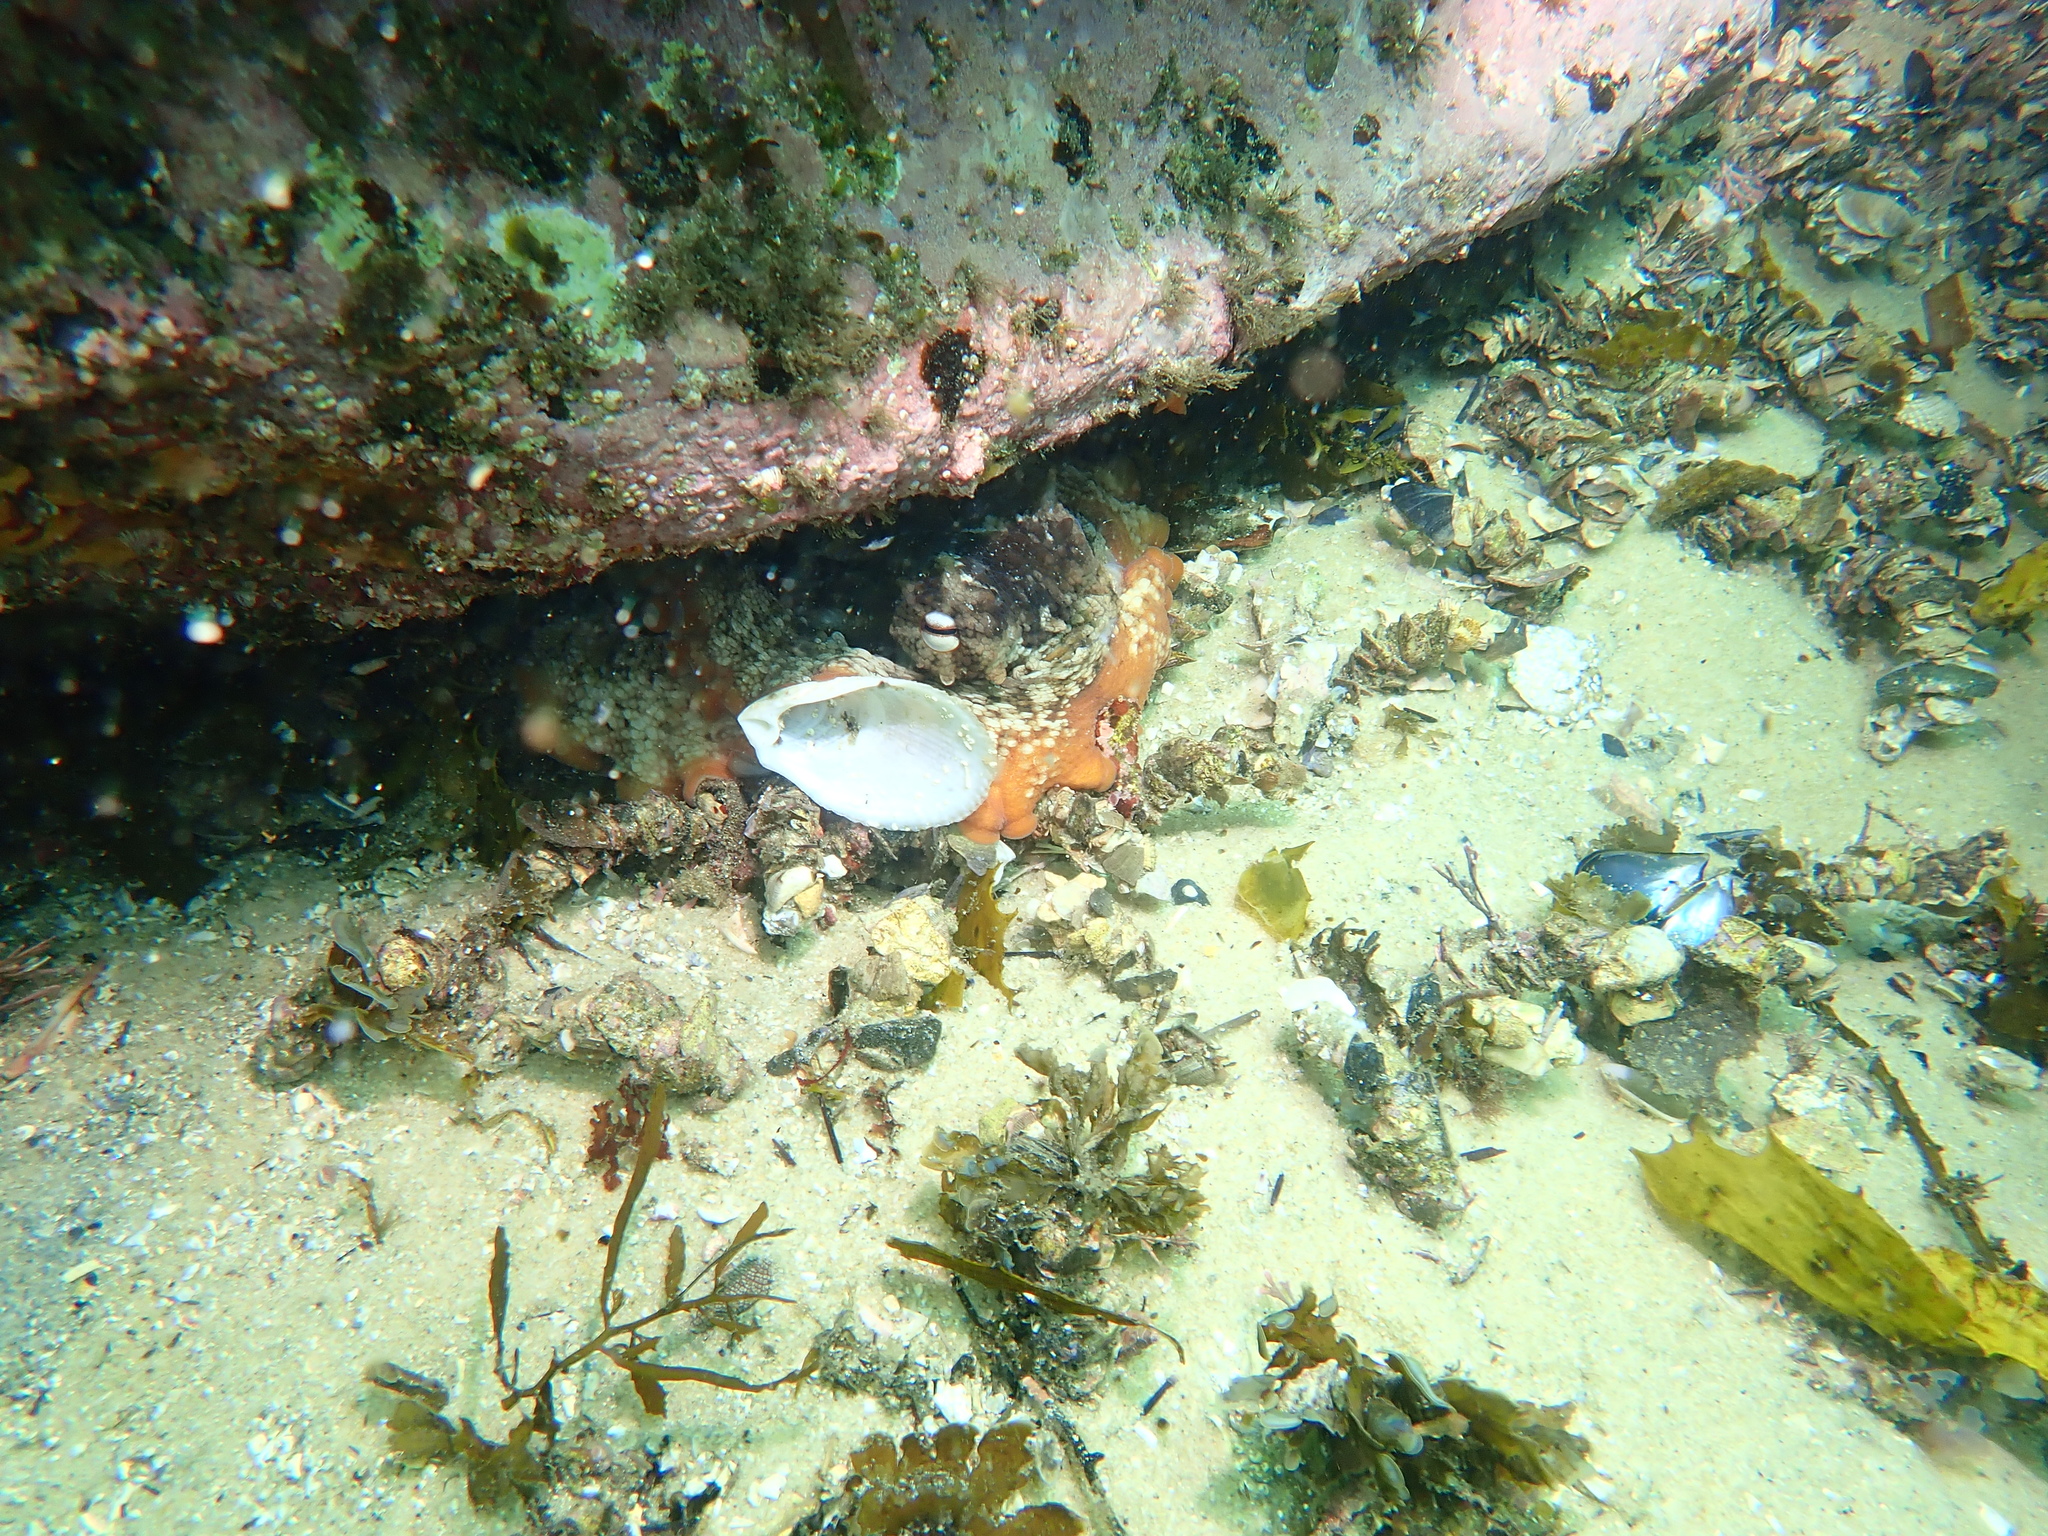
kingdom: Animalia
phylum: Mollusca
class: Cephalopoda
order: Octopoda
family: Octopodidae
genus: Octopus
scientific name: Octopus tetricus
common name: Sydney octopus
